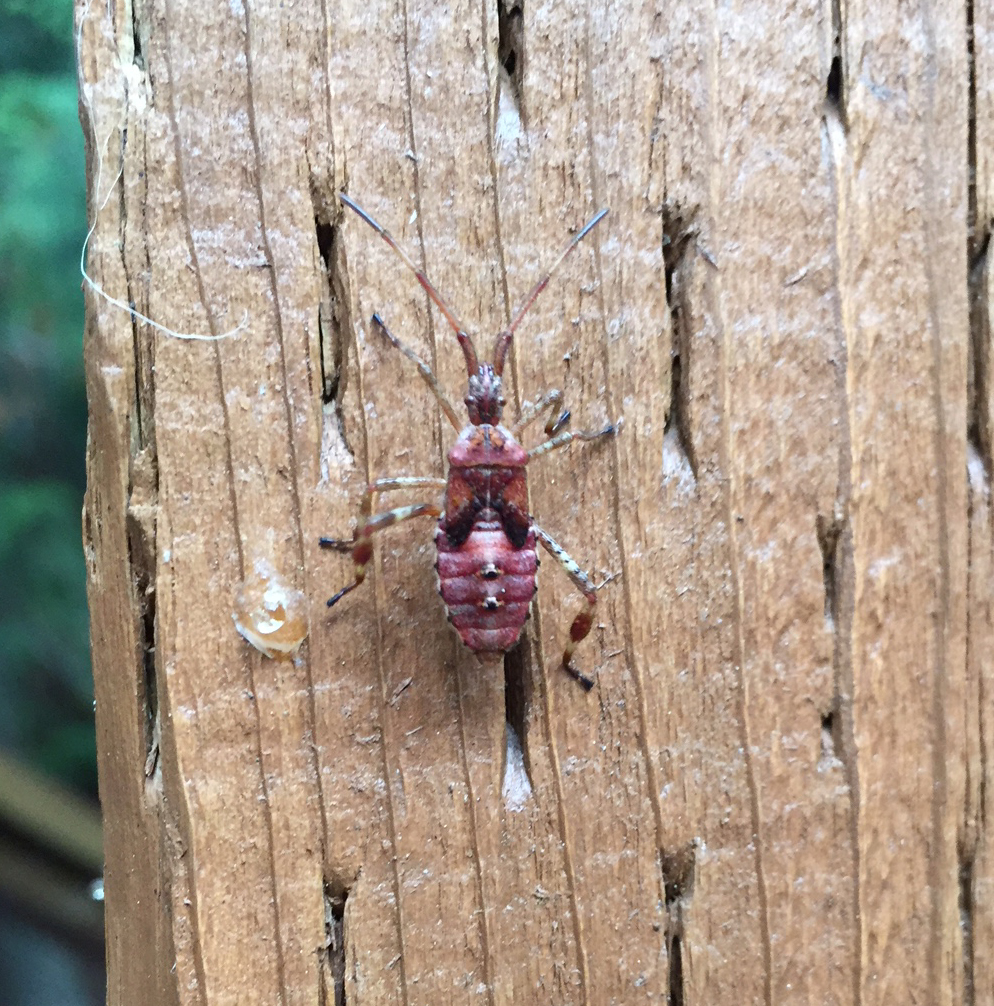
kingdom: Animalia
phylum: Arthropoda
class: Insecta
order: Hemiptera
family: Coreidae
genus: Leptoglossus
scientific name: Leptoglossus occidentalis
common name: Western conifer-seed bug
